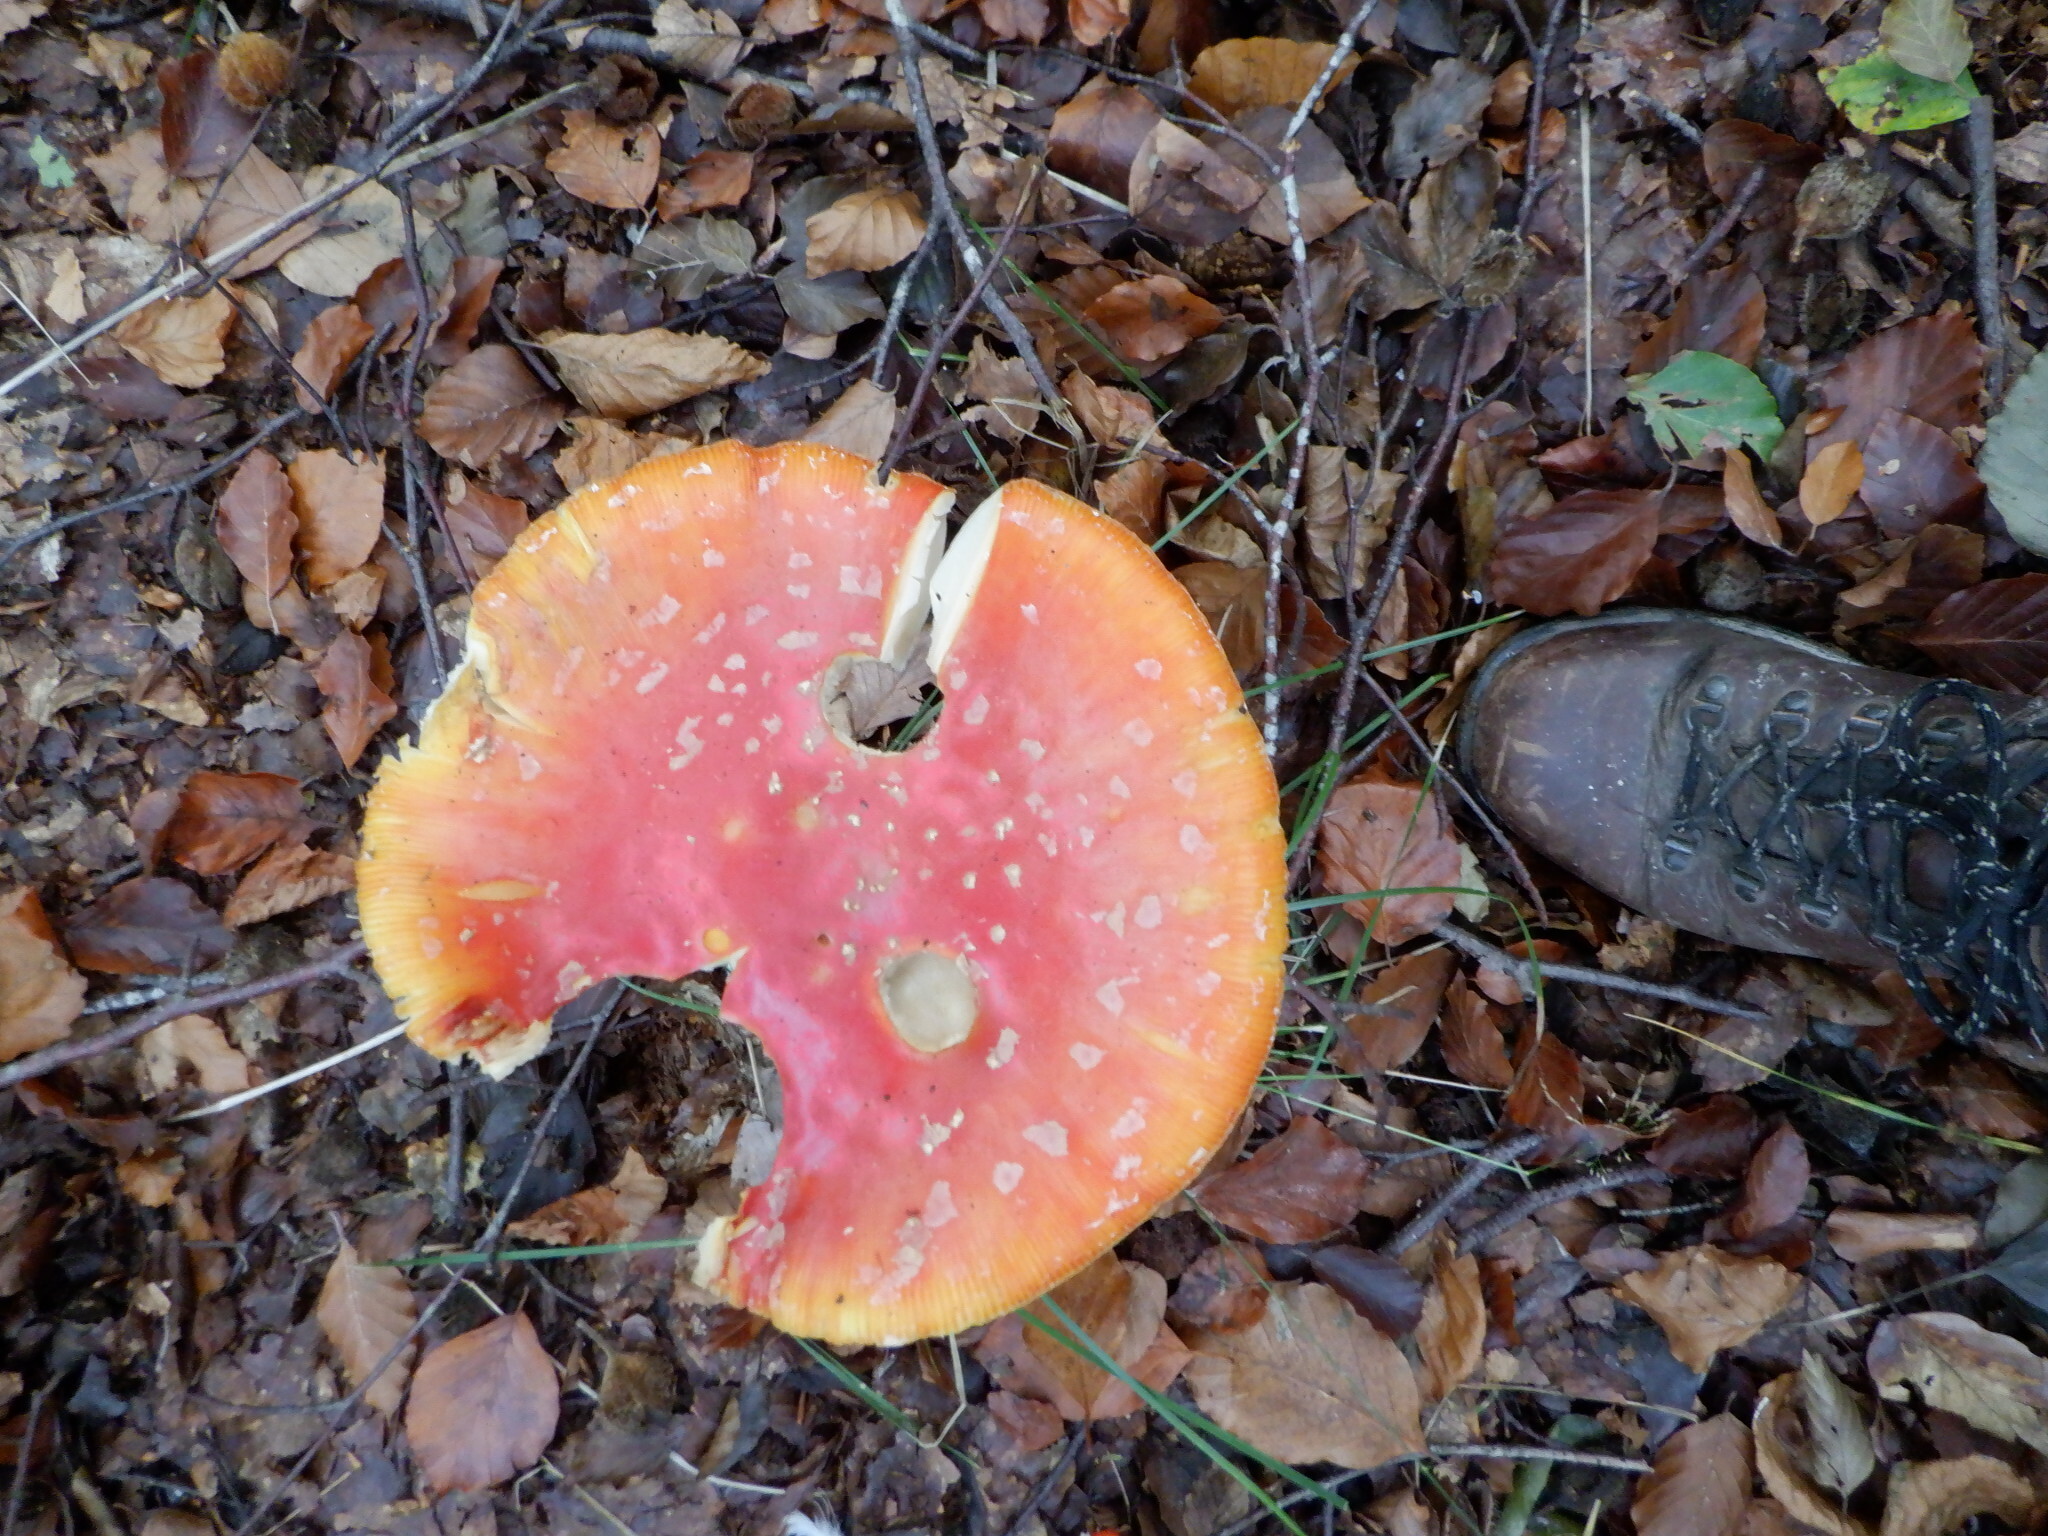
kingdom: Fungi
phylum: Basidiomycota
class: Agaricomycetes
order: Agaricales
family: Amanitaceae
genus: Amanita
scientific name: Amanita muscaria
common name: Fly agaric
